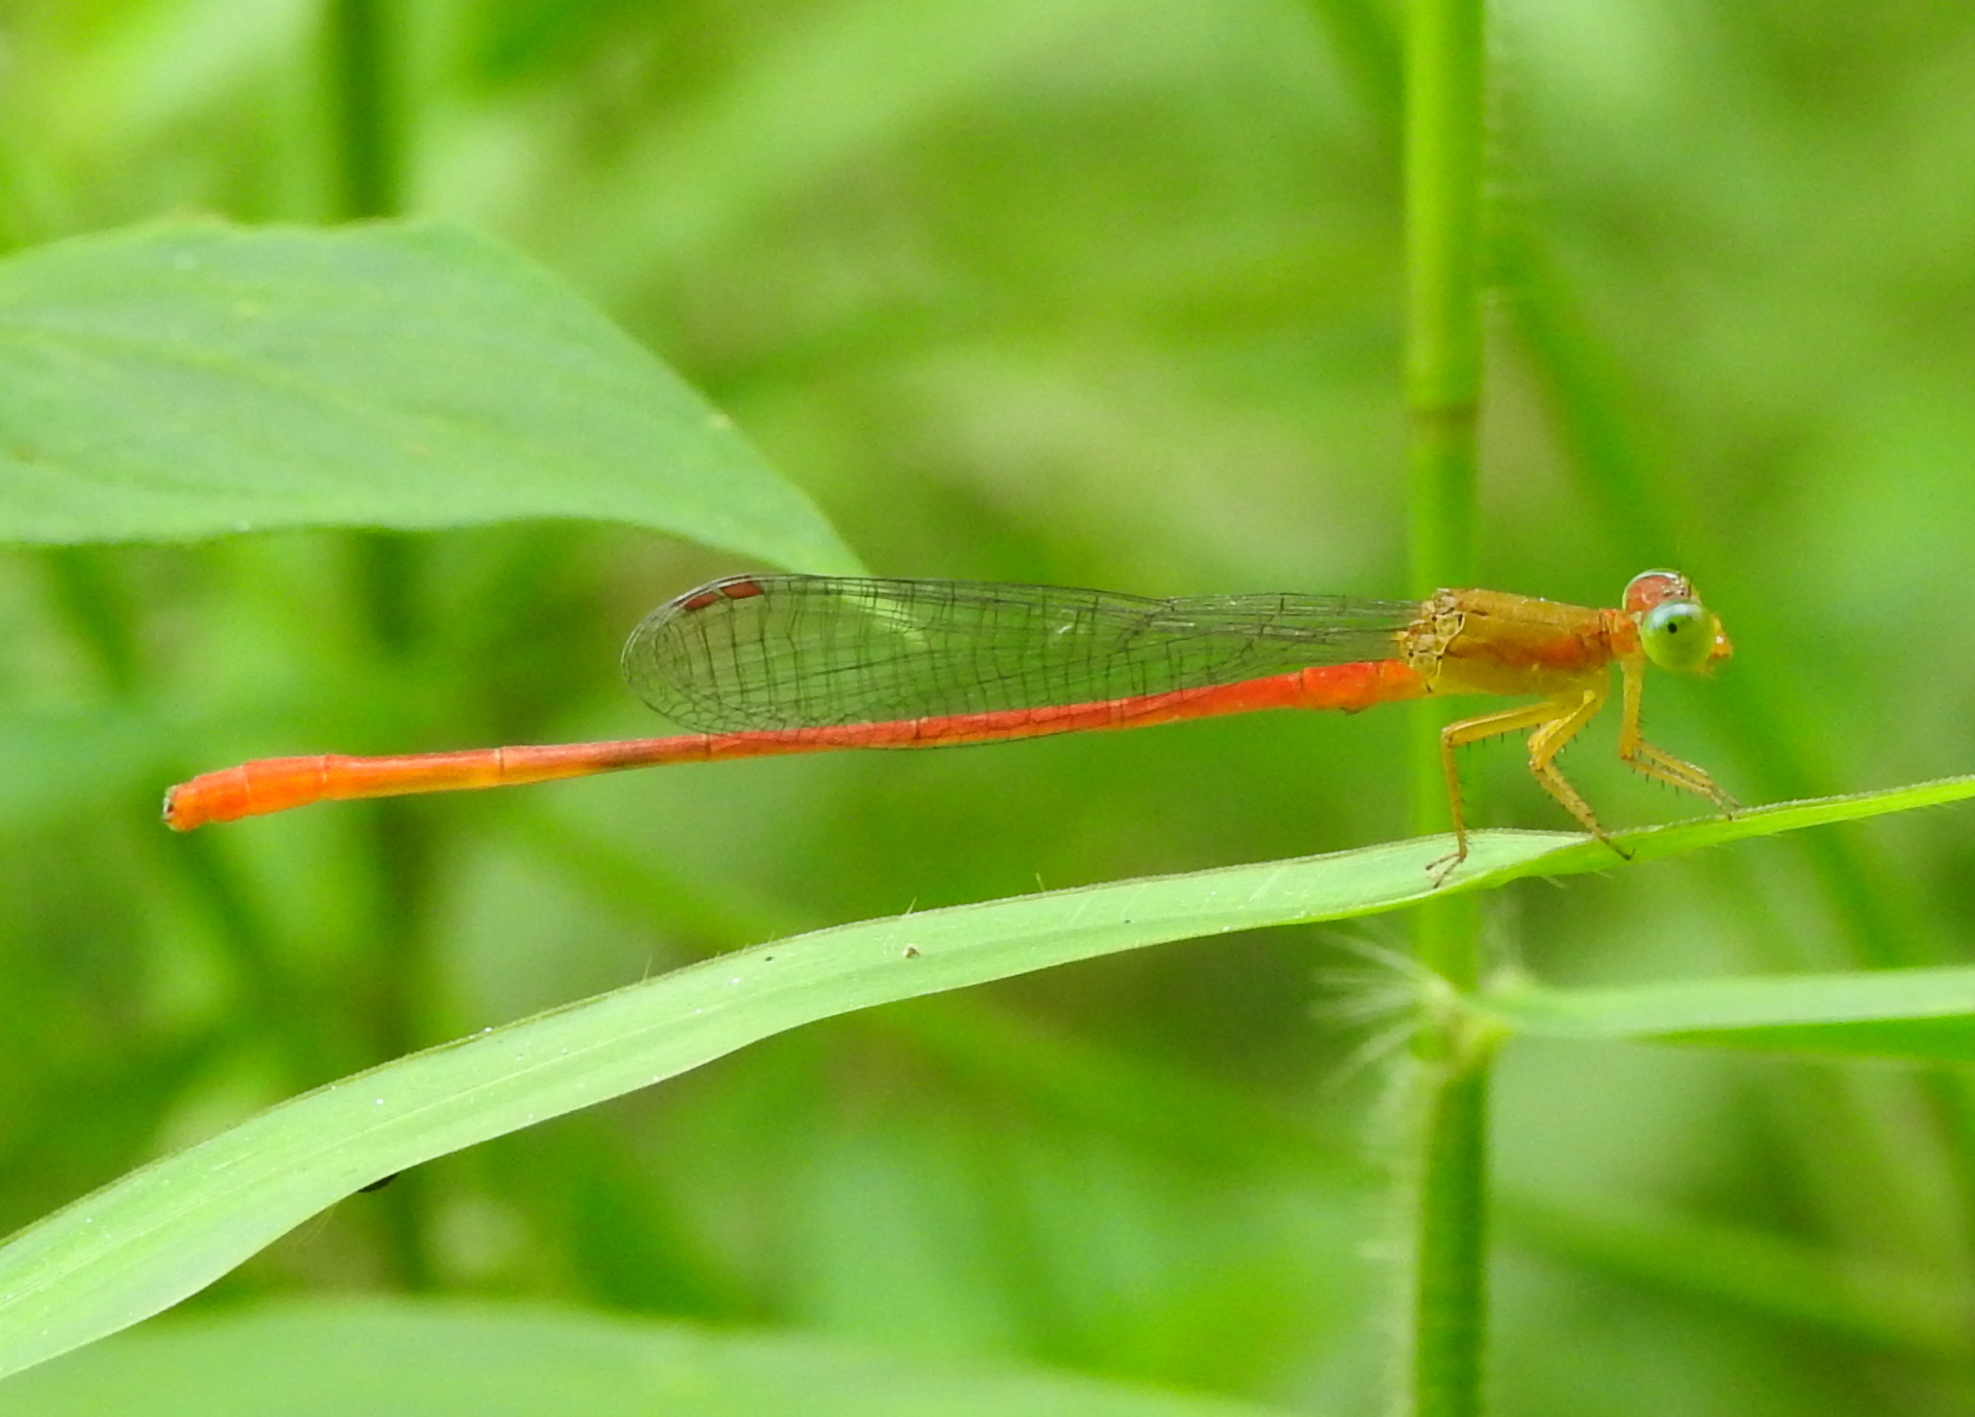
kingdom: Animalia
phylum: Arthropoda
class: Insecta
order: Odonata
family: Coenagrionidae
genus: Ceriagrion
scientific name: Ceriagrion auranticum
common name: Orange-tailed sprite
